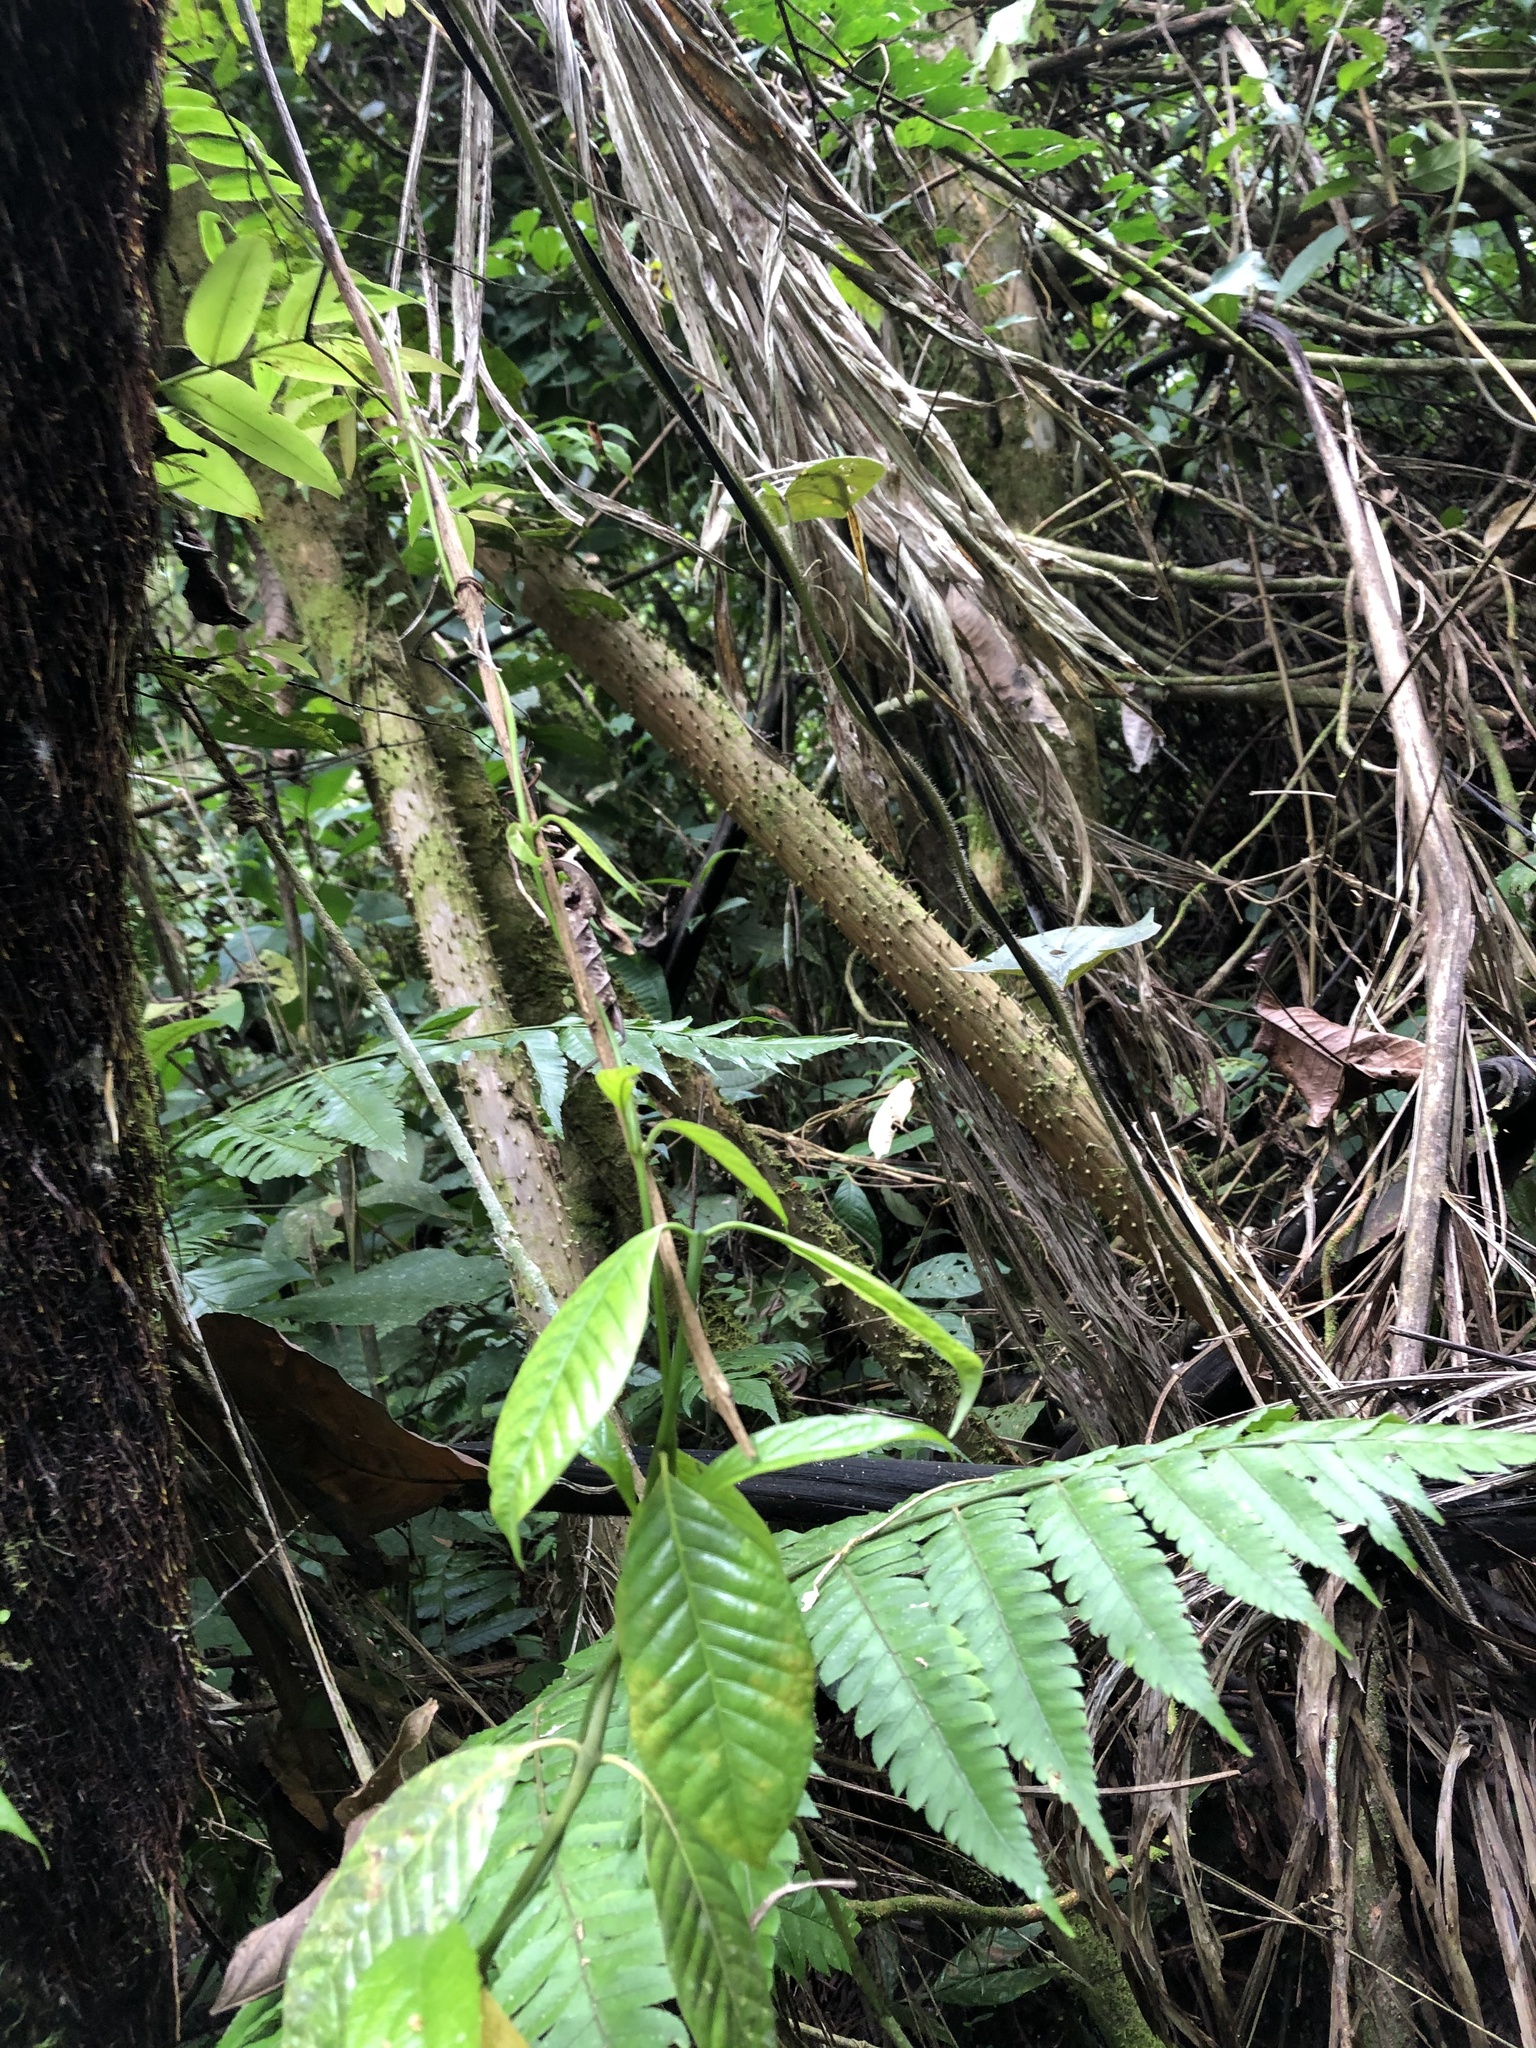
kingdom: Plantae
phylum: Tracheophyta
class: Liliopsida
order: Arecales
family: Arecaceae
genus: Socratea
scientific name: Socratea exorrhiza
